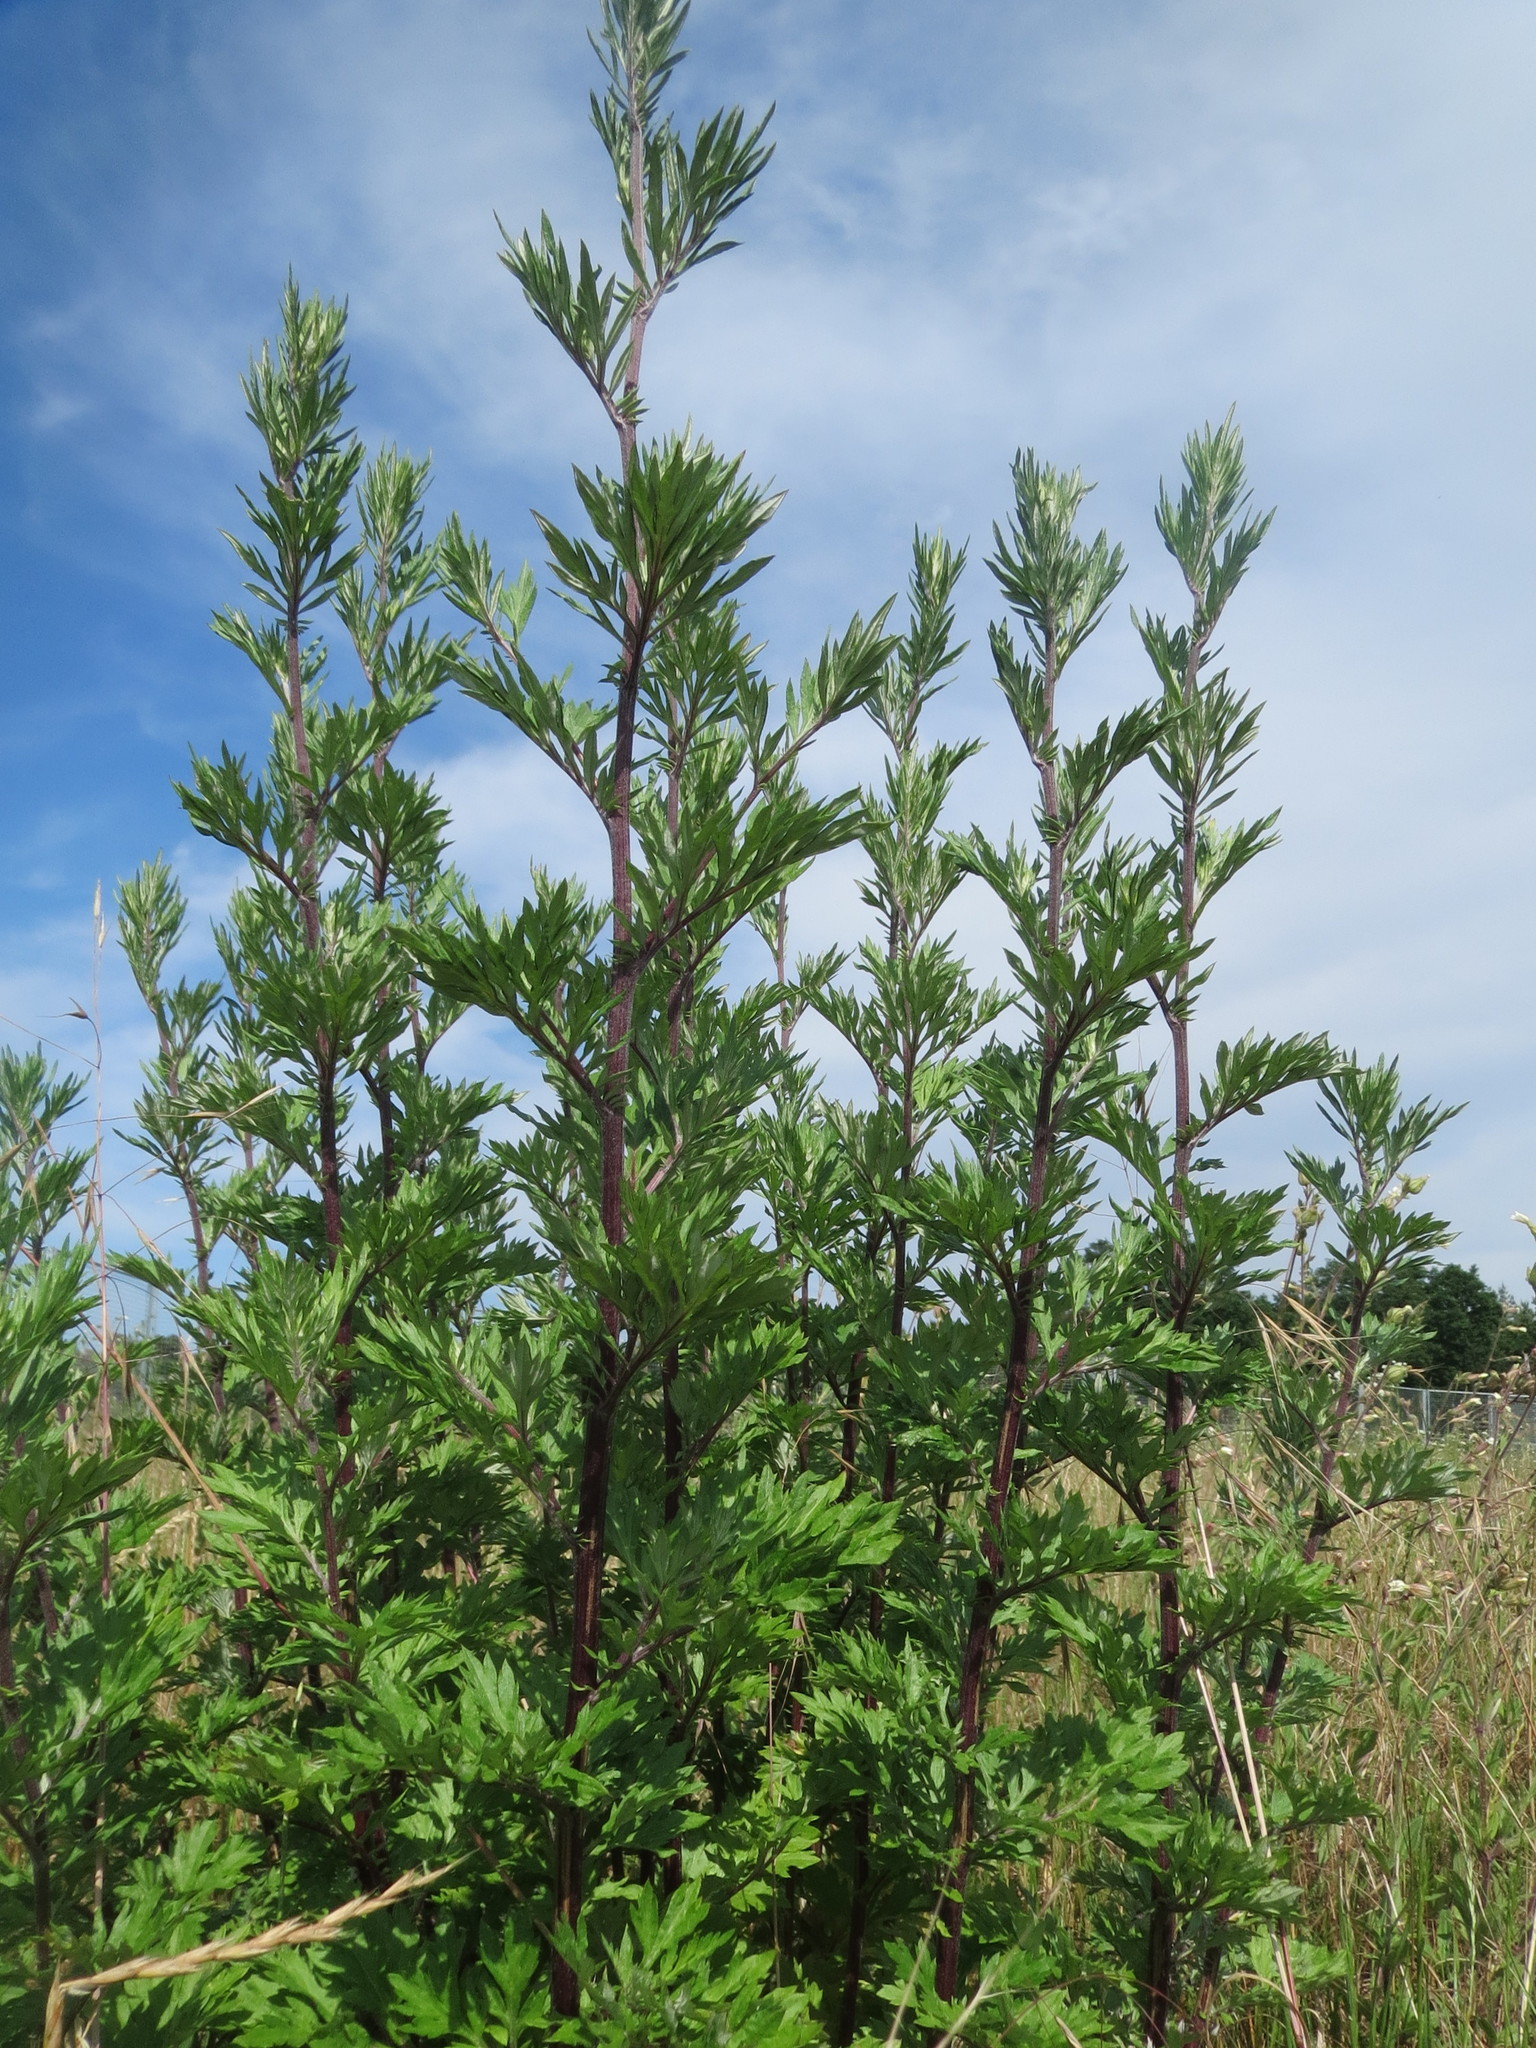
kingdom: Plantae
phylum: Tracheophyta
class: Magnoliopsida
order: Asterales
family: Asteraceae
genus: Artemisia
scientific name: Artemisia vulgaris
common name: Mugwort
